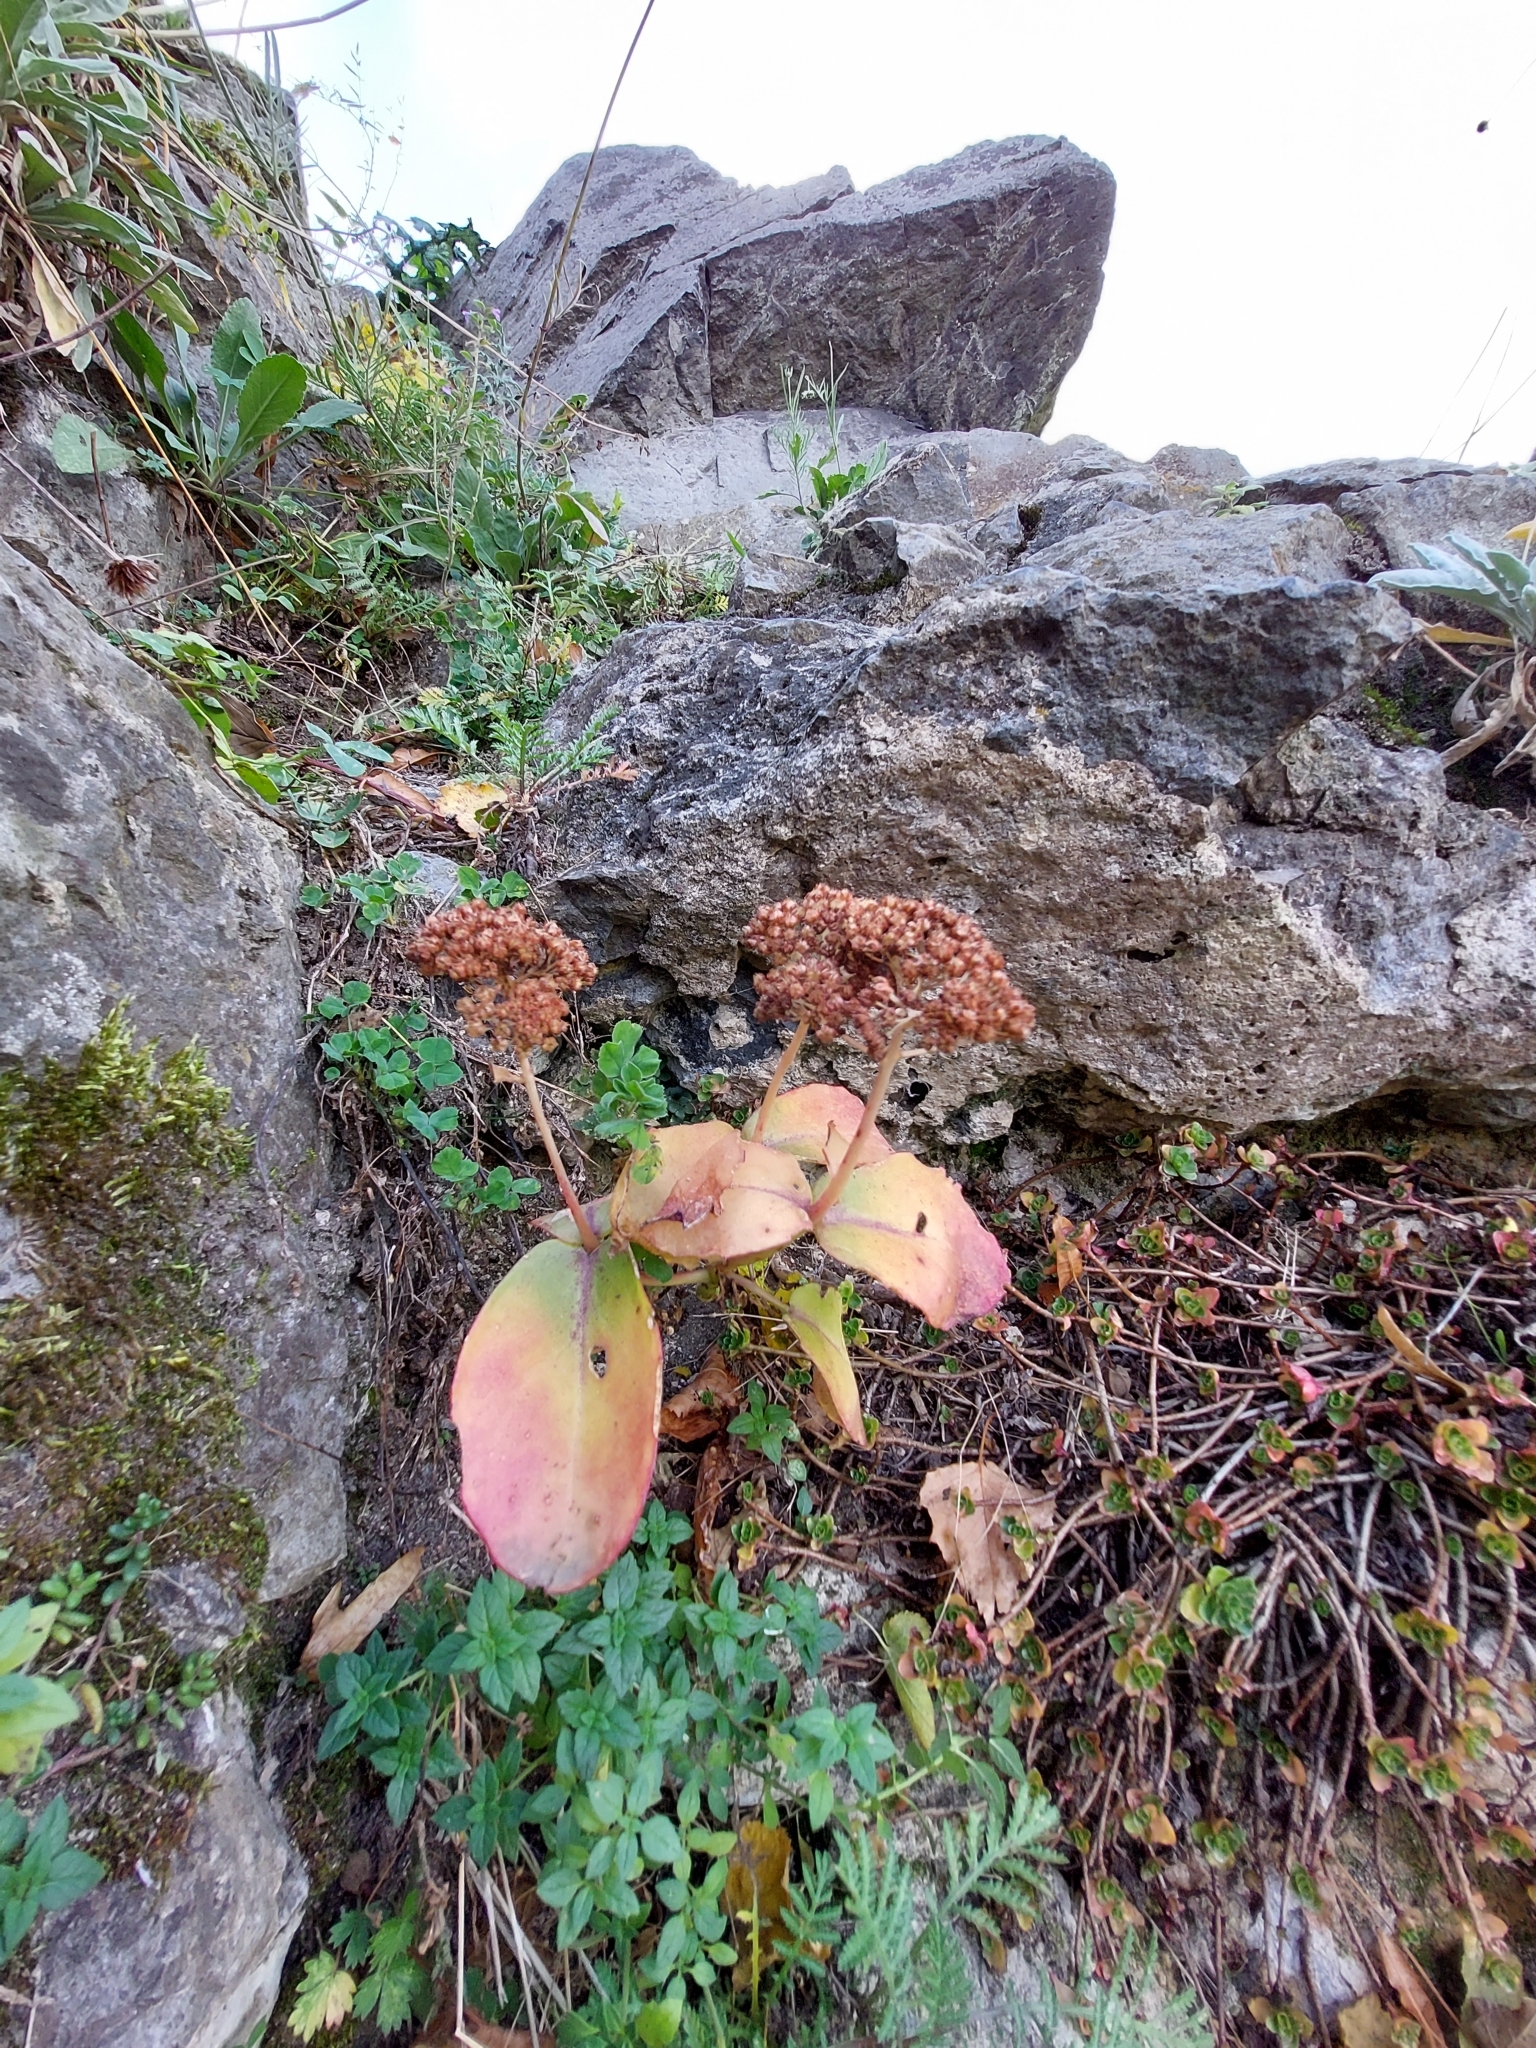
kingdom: Plantae
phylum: Tracheophyta
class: Magnoliopsida
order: Saxifragales
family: Crassulaceae
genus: Hylotelephium
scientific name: Hylotelephium maximum
